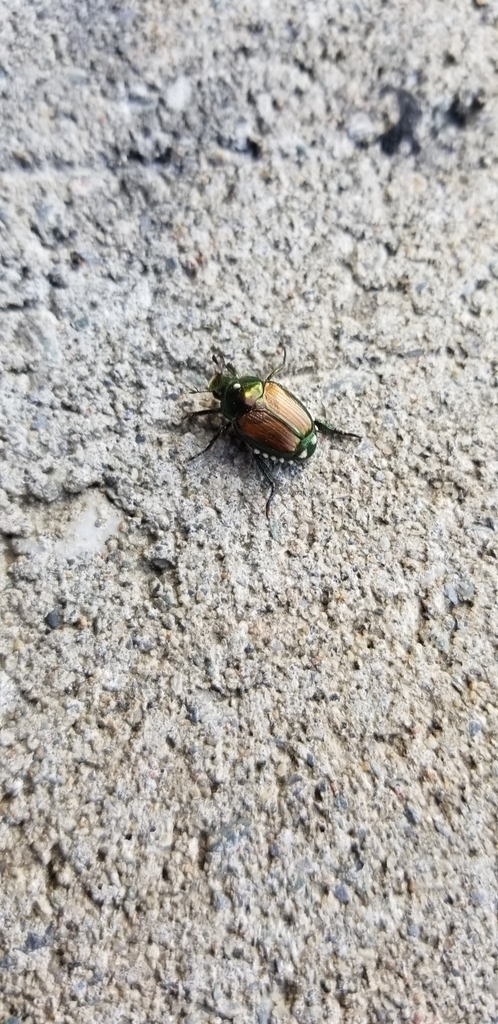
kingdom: Animalia
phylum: Arthropoda
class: Insecta
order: Diptera
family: Tachinidae
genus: Istocheta
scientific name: Istocheta aldrichi
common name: Parasitic wasp
